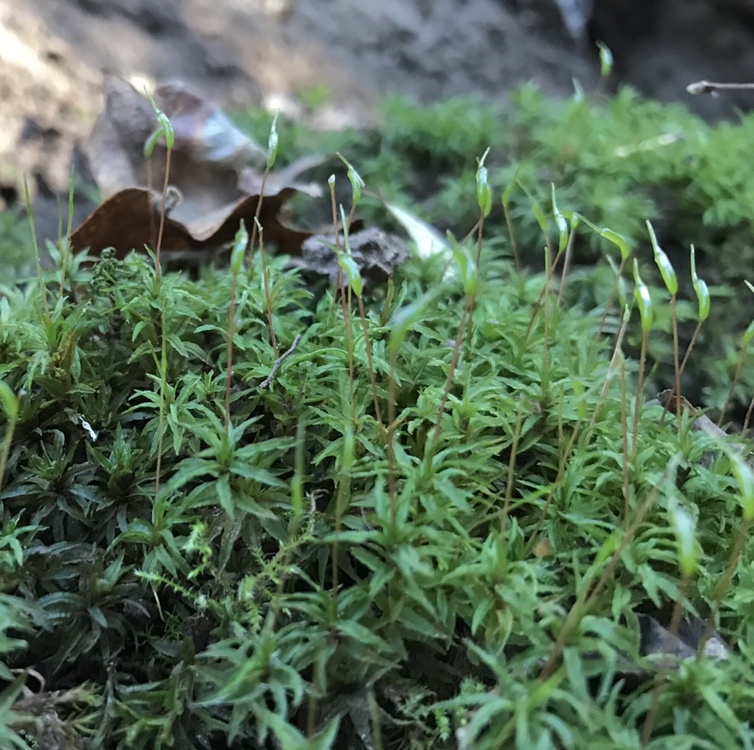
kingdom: Plantae
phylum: Bryophyta
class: Polytrichopsida
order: Polytrichales
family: Polytrichaceae
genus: Atrichum
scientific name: Atrichum undulatum
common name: Common smoothcap
